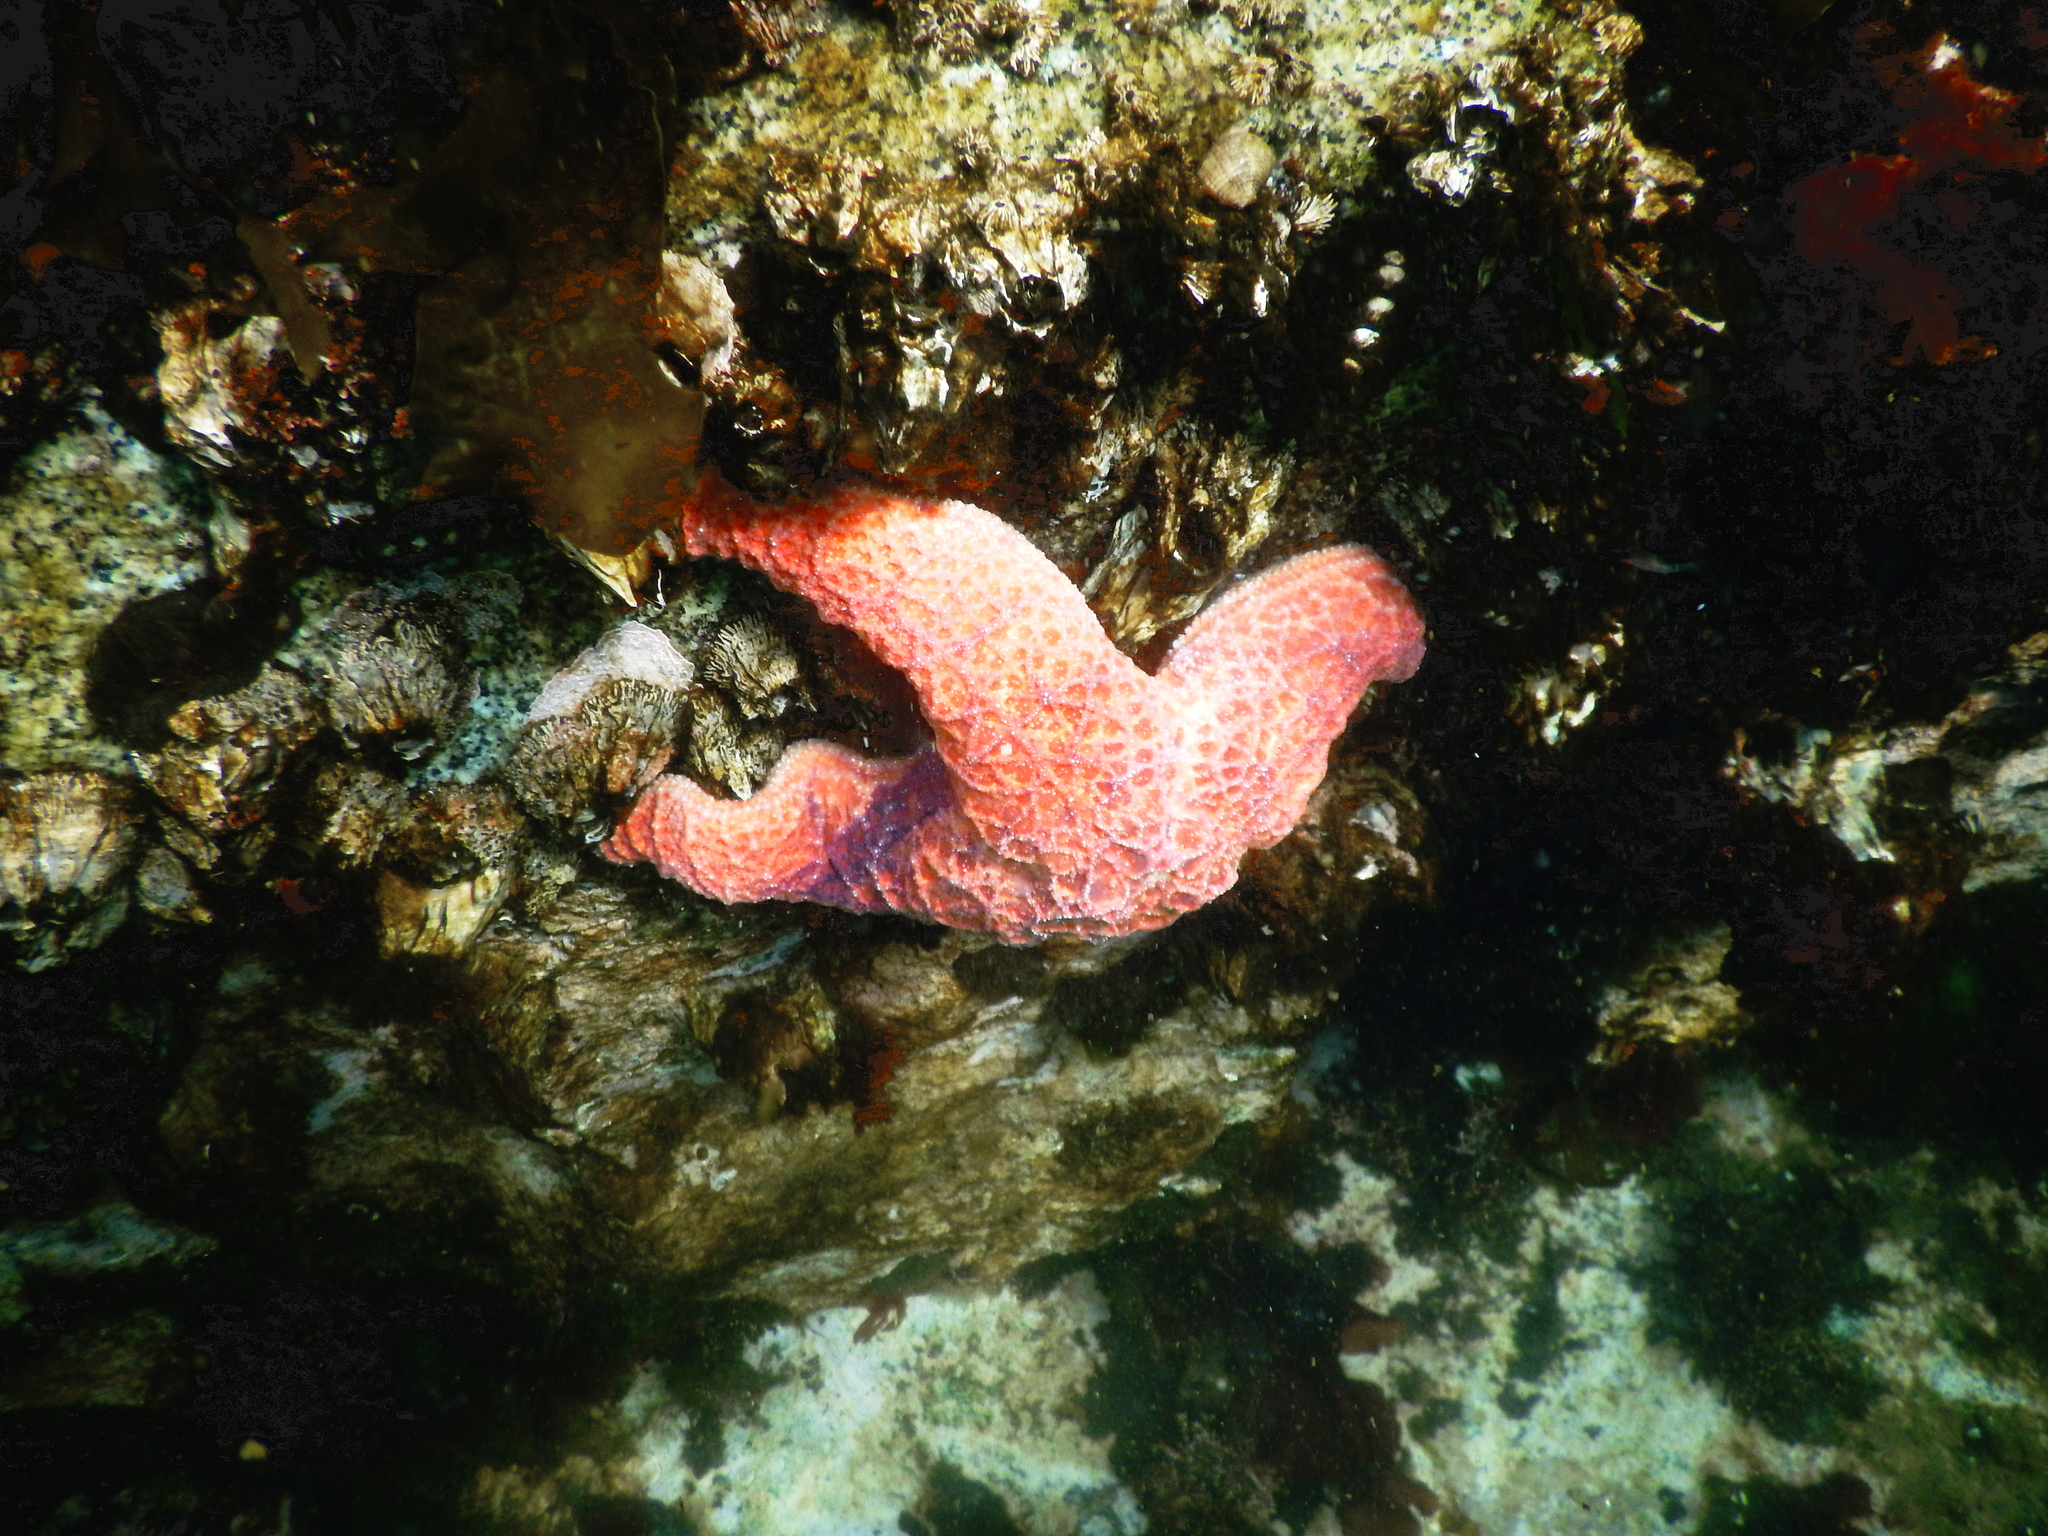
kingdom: Animalia
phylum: Echinodermata
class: Asteroidea
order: Forcipulatida
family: Asteriidae
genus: Pisaster
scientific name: Pisaster ochraceus
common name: Ochre stars
